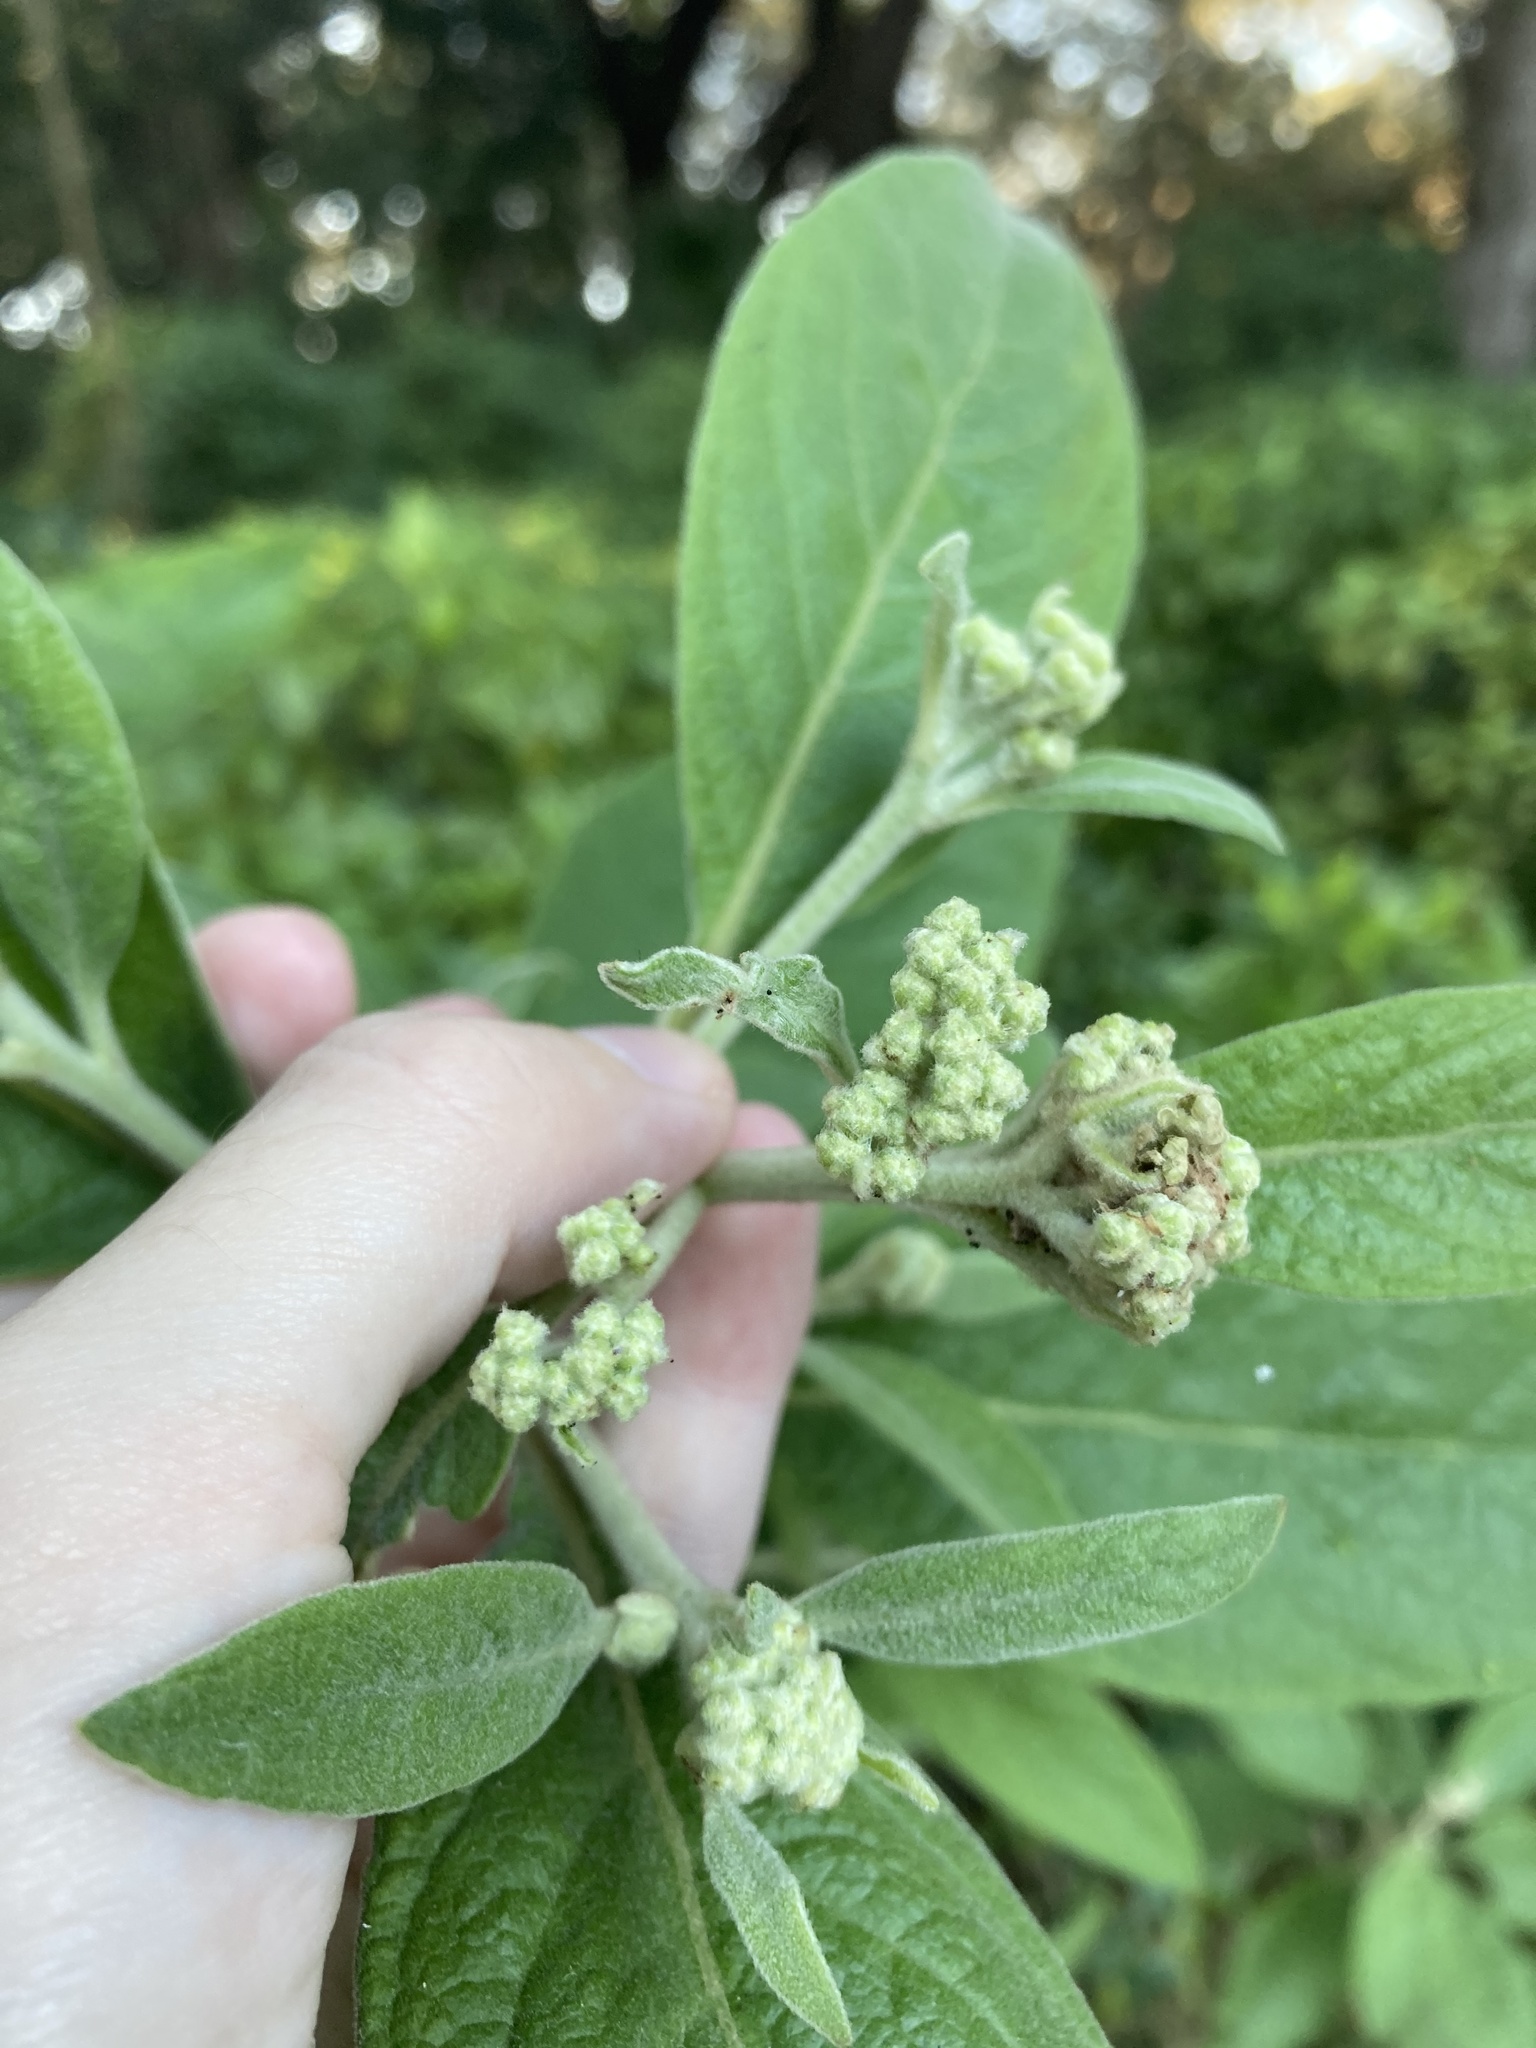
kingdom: Plantae
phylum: Tracheophyta
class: Magnoliopsida
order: Asterales
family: Asteraceae
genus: Pluchea
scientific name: Pluchea carolinensis
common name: Marsh fleabane
